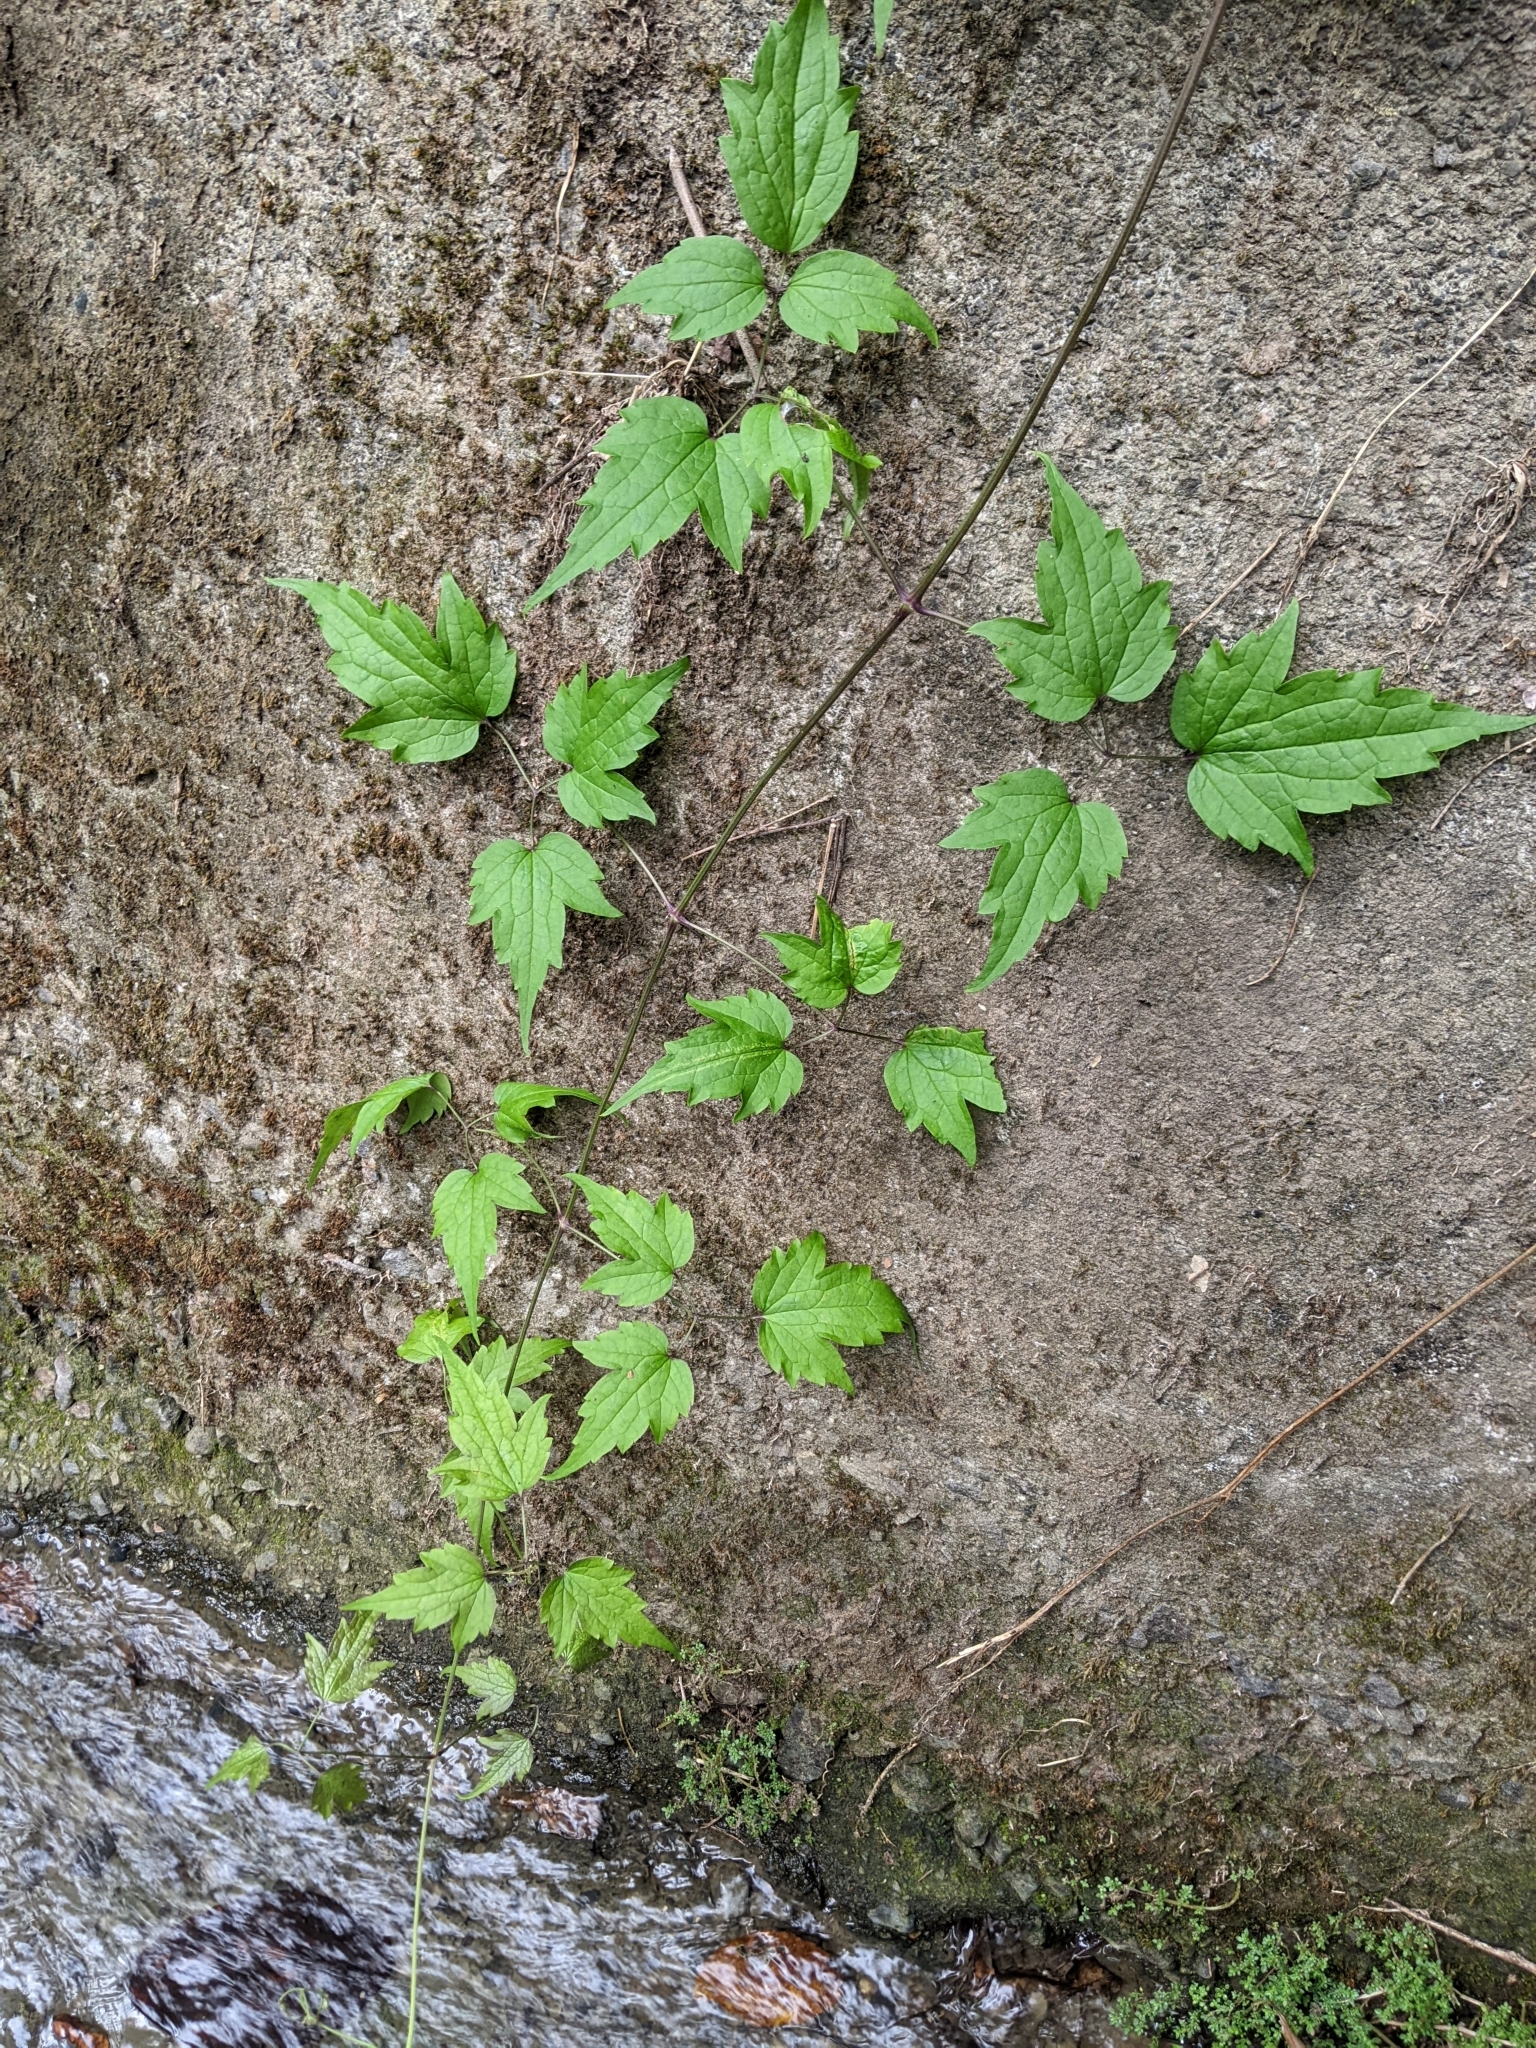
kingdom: Plantae
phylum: Tracheophyta
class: Magnoliopsida
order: Ranunculales
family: Ranunculaceae
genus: Clematis
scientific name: Clematis grata
